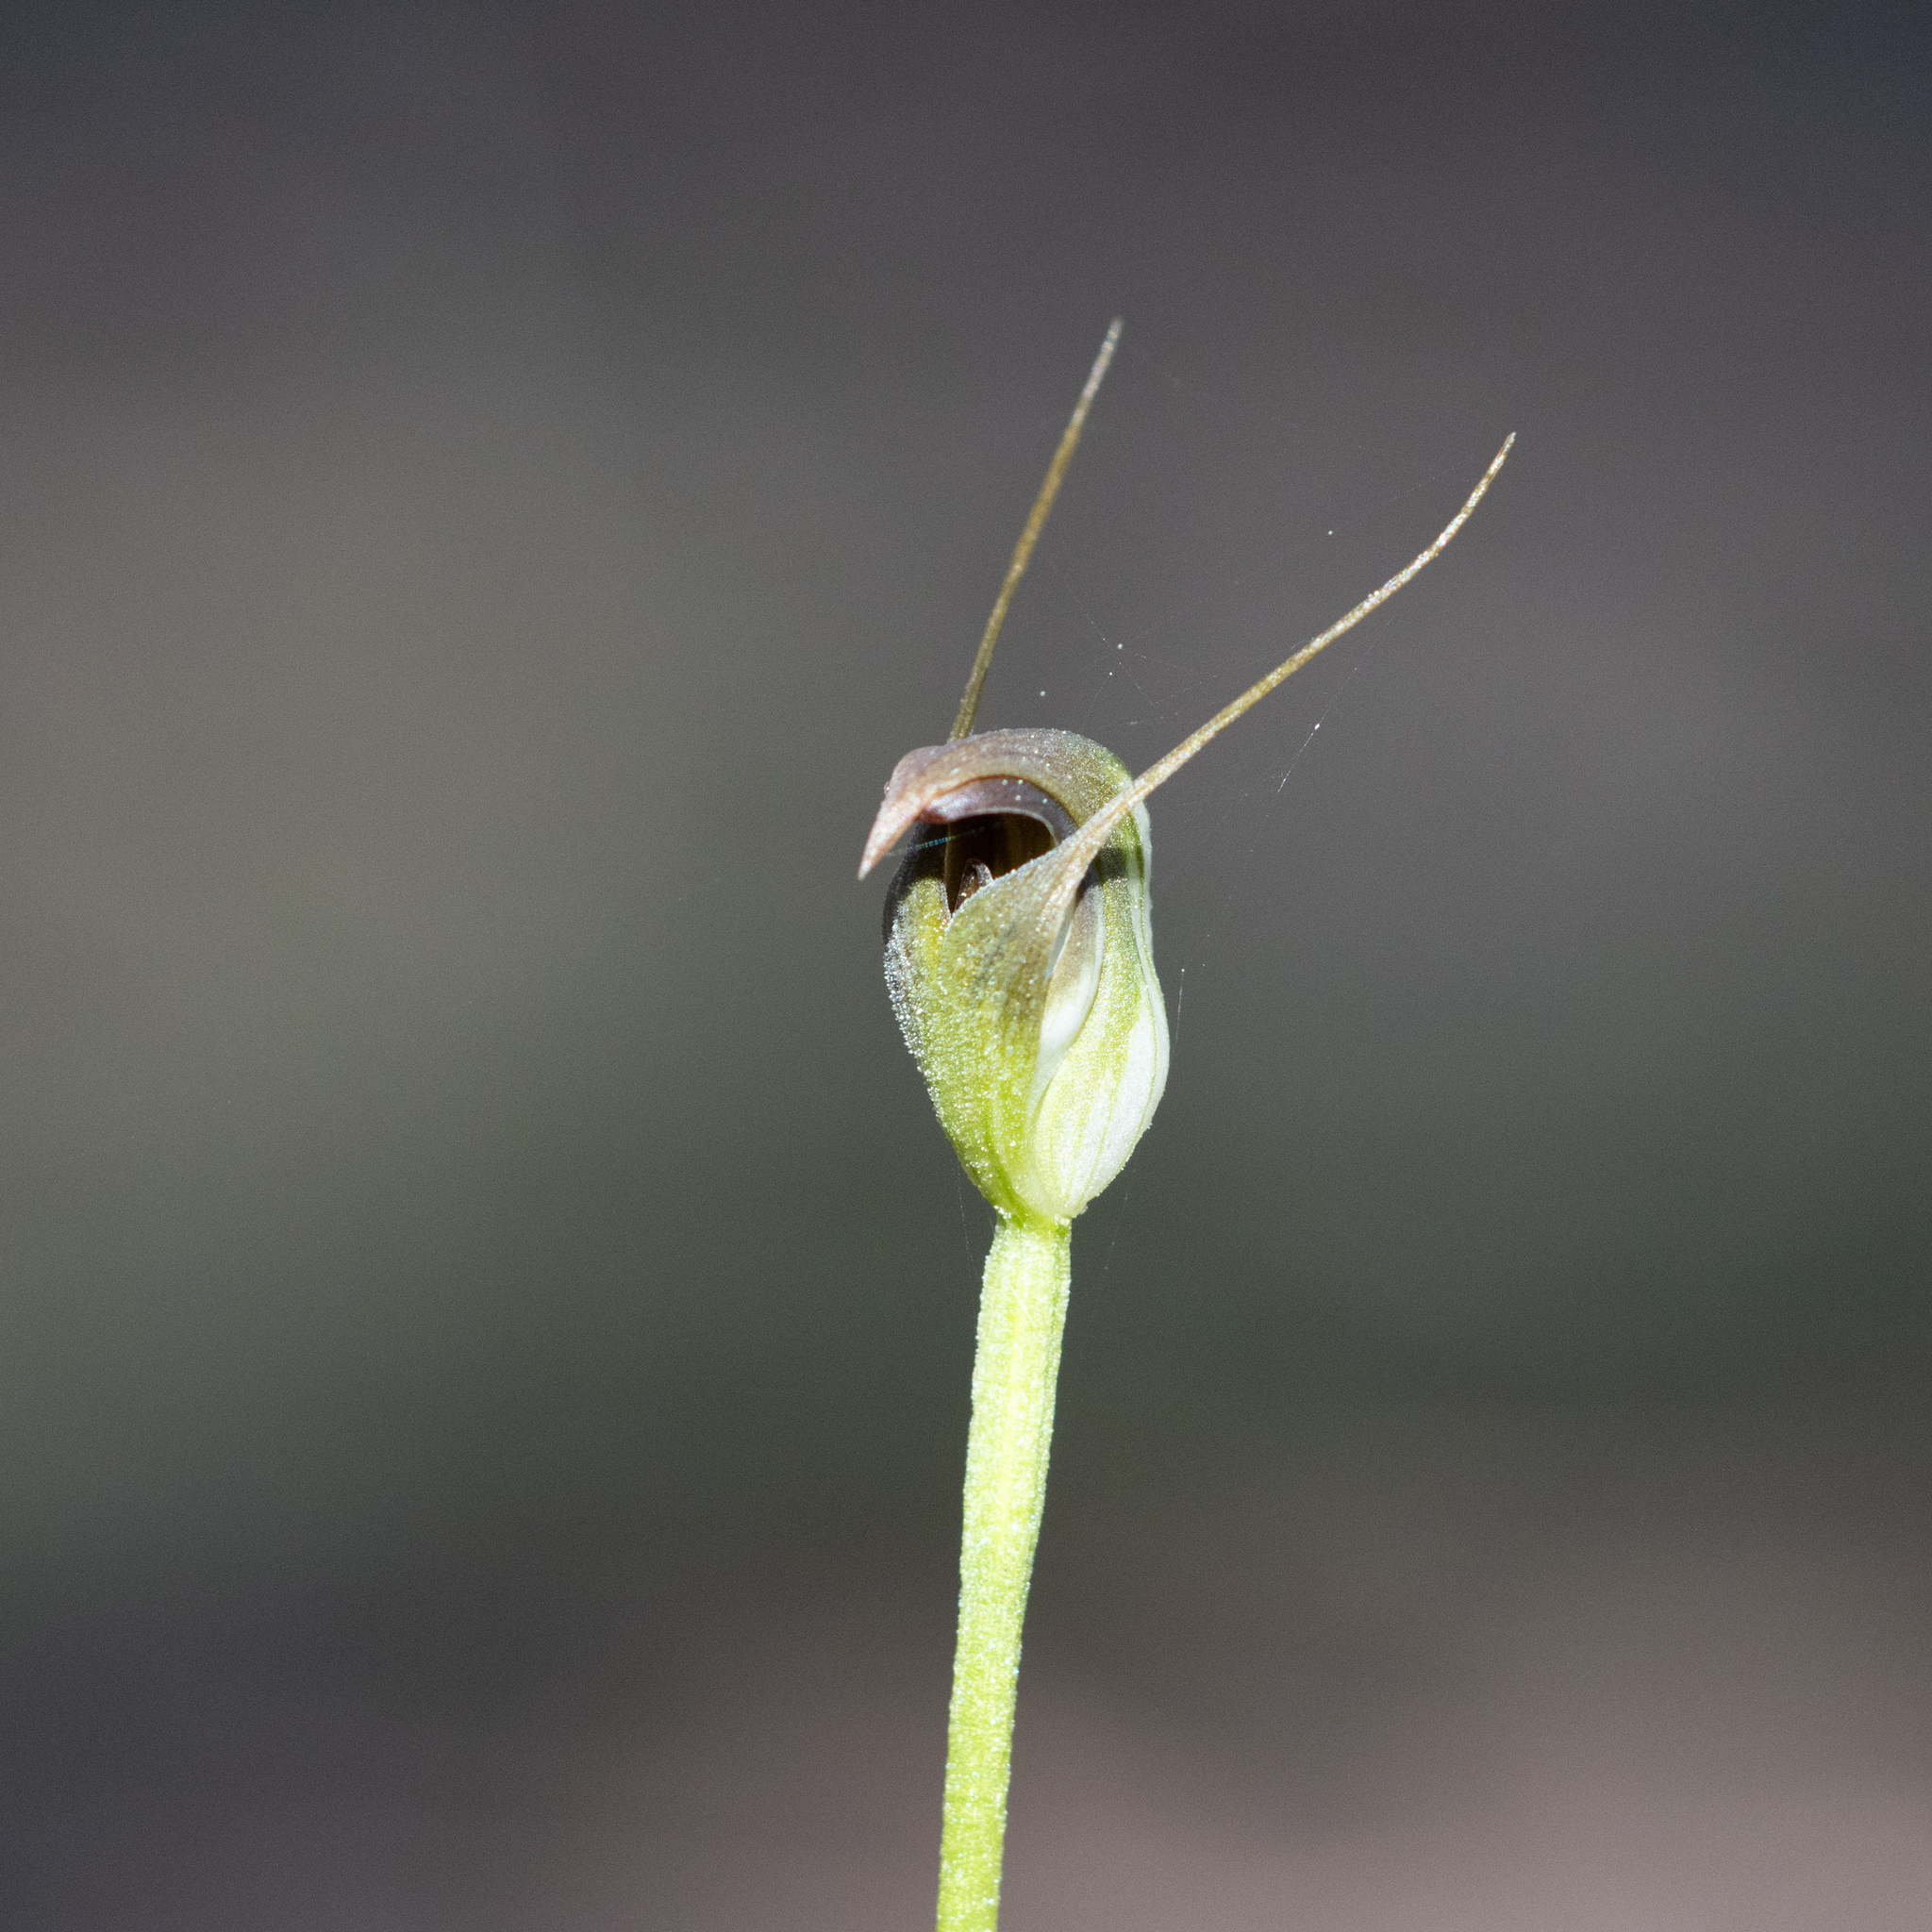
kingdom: Plantae
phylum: Tracheophyta
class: Liliopsida
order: Asparagales
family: Orchidaceae
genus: Pterostylis
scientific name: Pterostylis pedunculata
